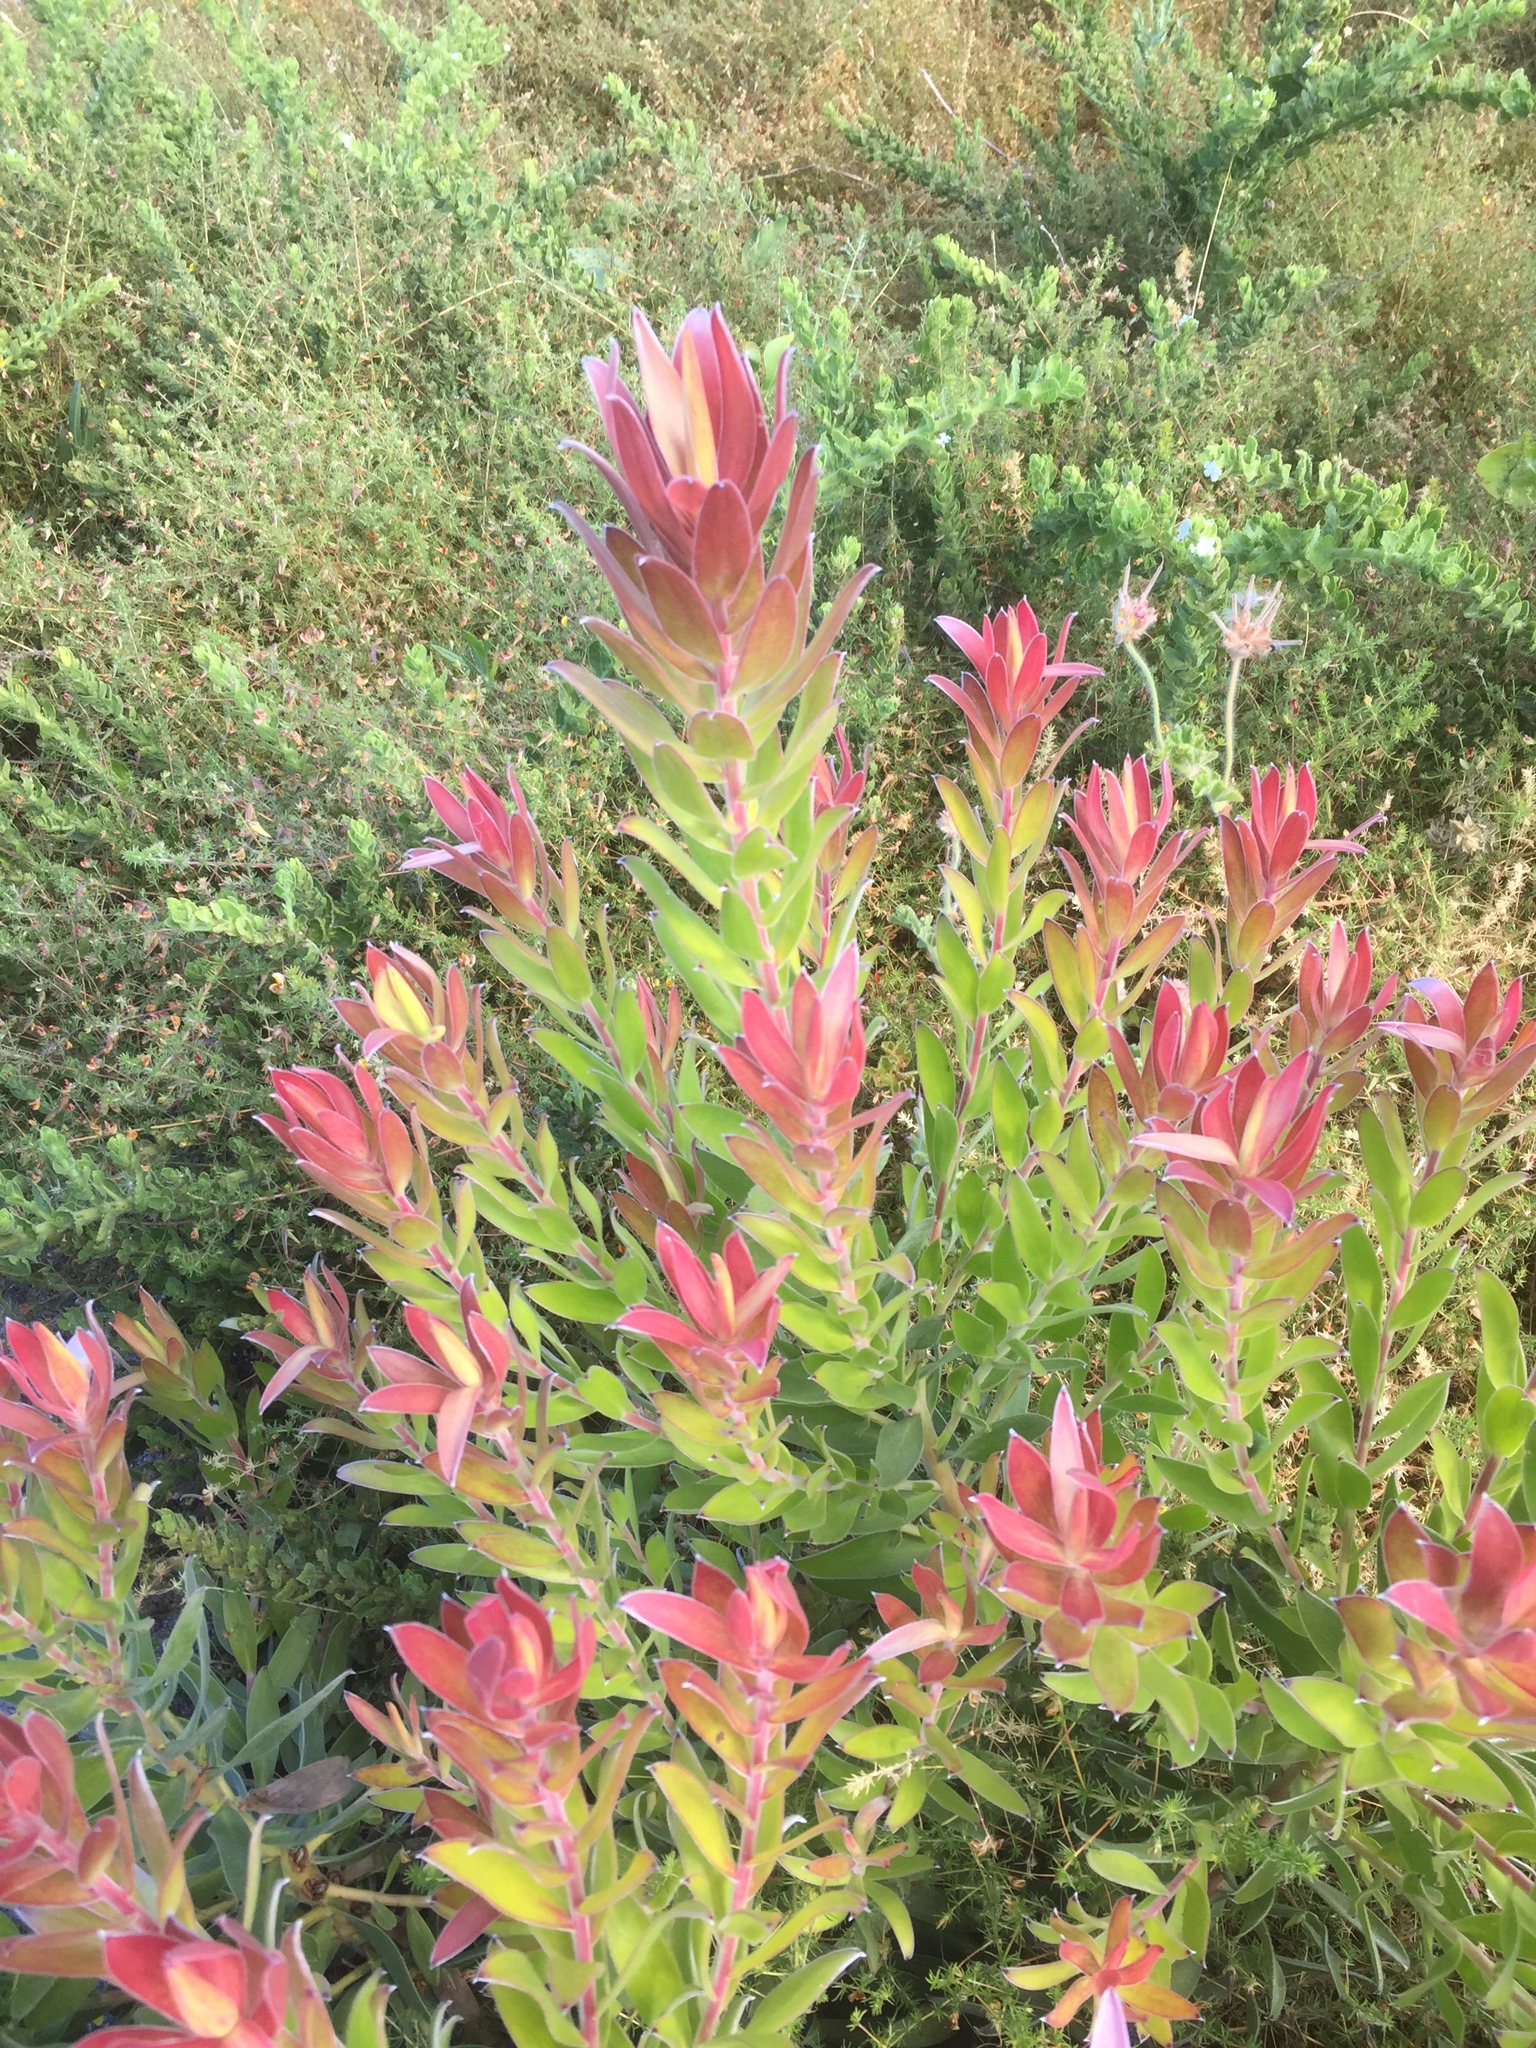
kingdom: Plantae
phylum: Tracheophyta
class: Magnoliopsida
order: Proteales
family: Proteaceae
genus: Leucadendron
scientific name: Leucadendron laureolum
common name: Golden sunshinebush
